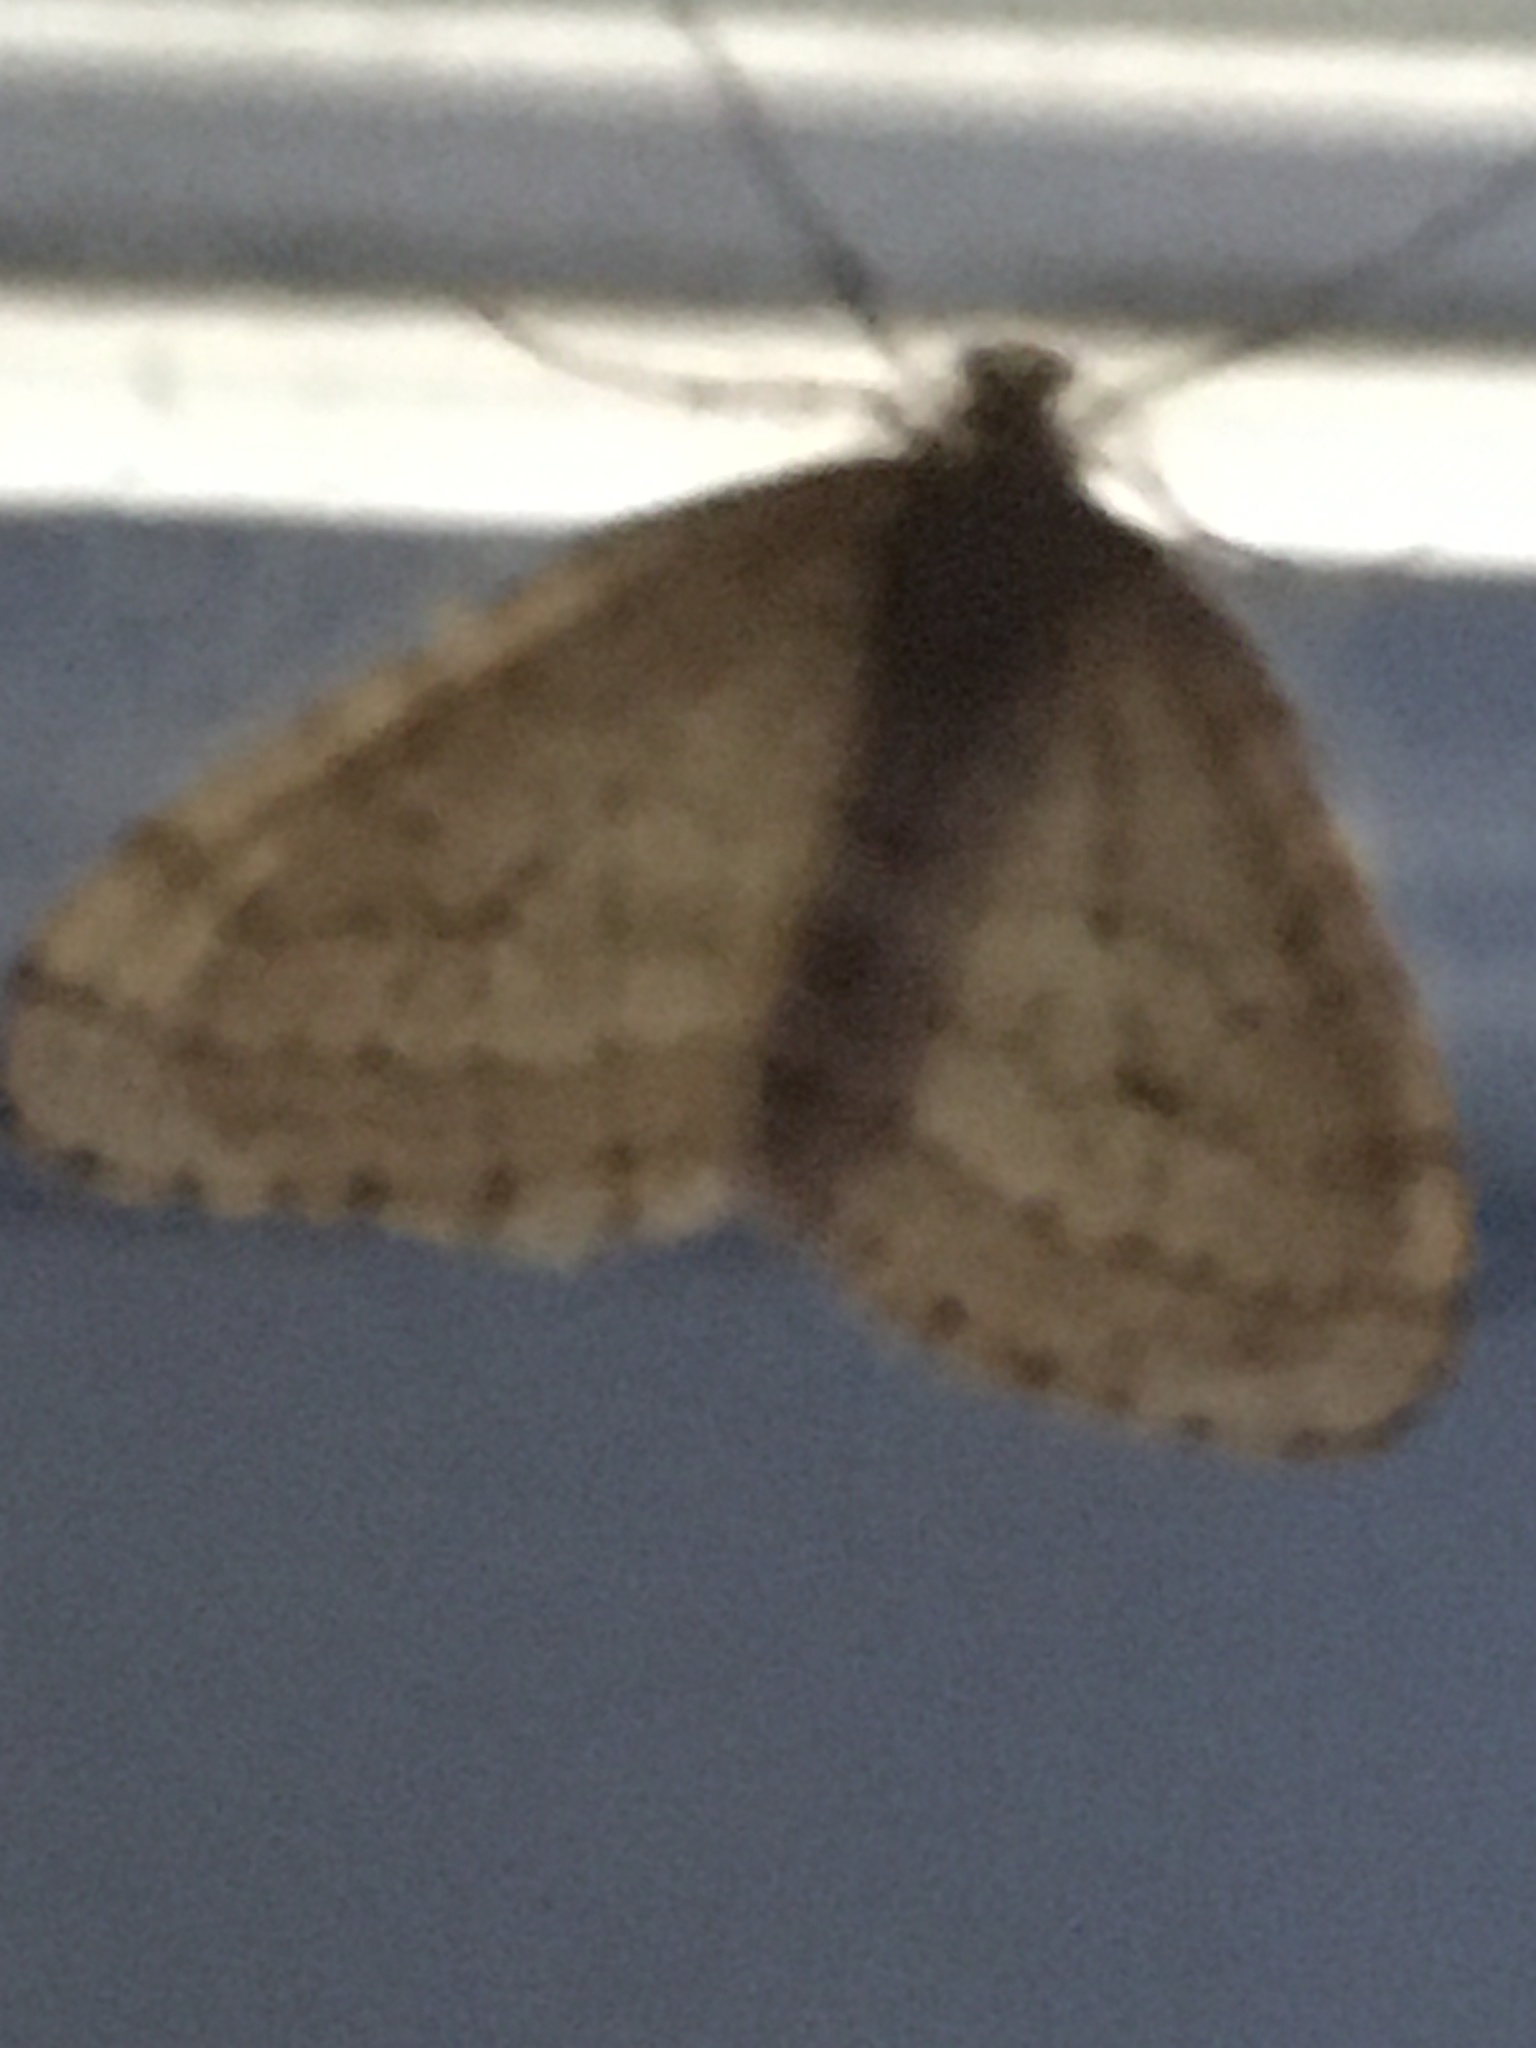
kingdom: Animalia
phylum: Arthropoda
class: Insecta
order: Lepidoptera
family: Geometridae
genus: Operophtera
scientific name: Operophtera bruceata
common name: Bruce spanworm
